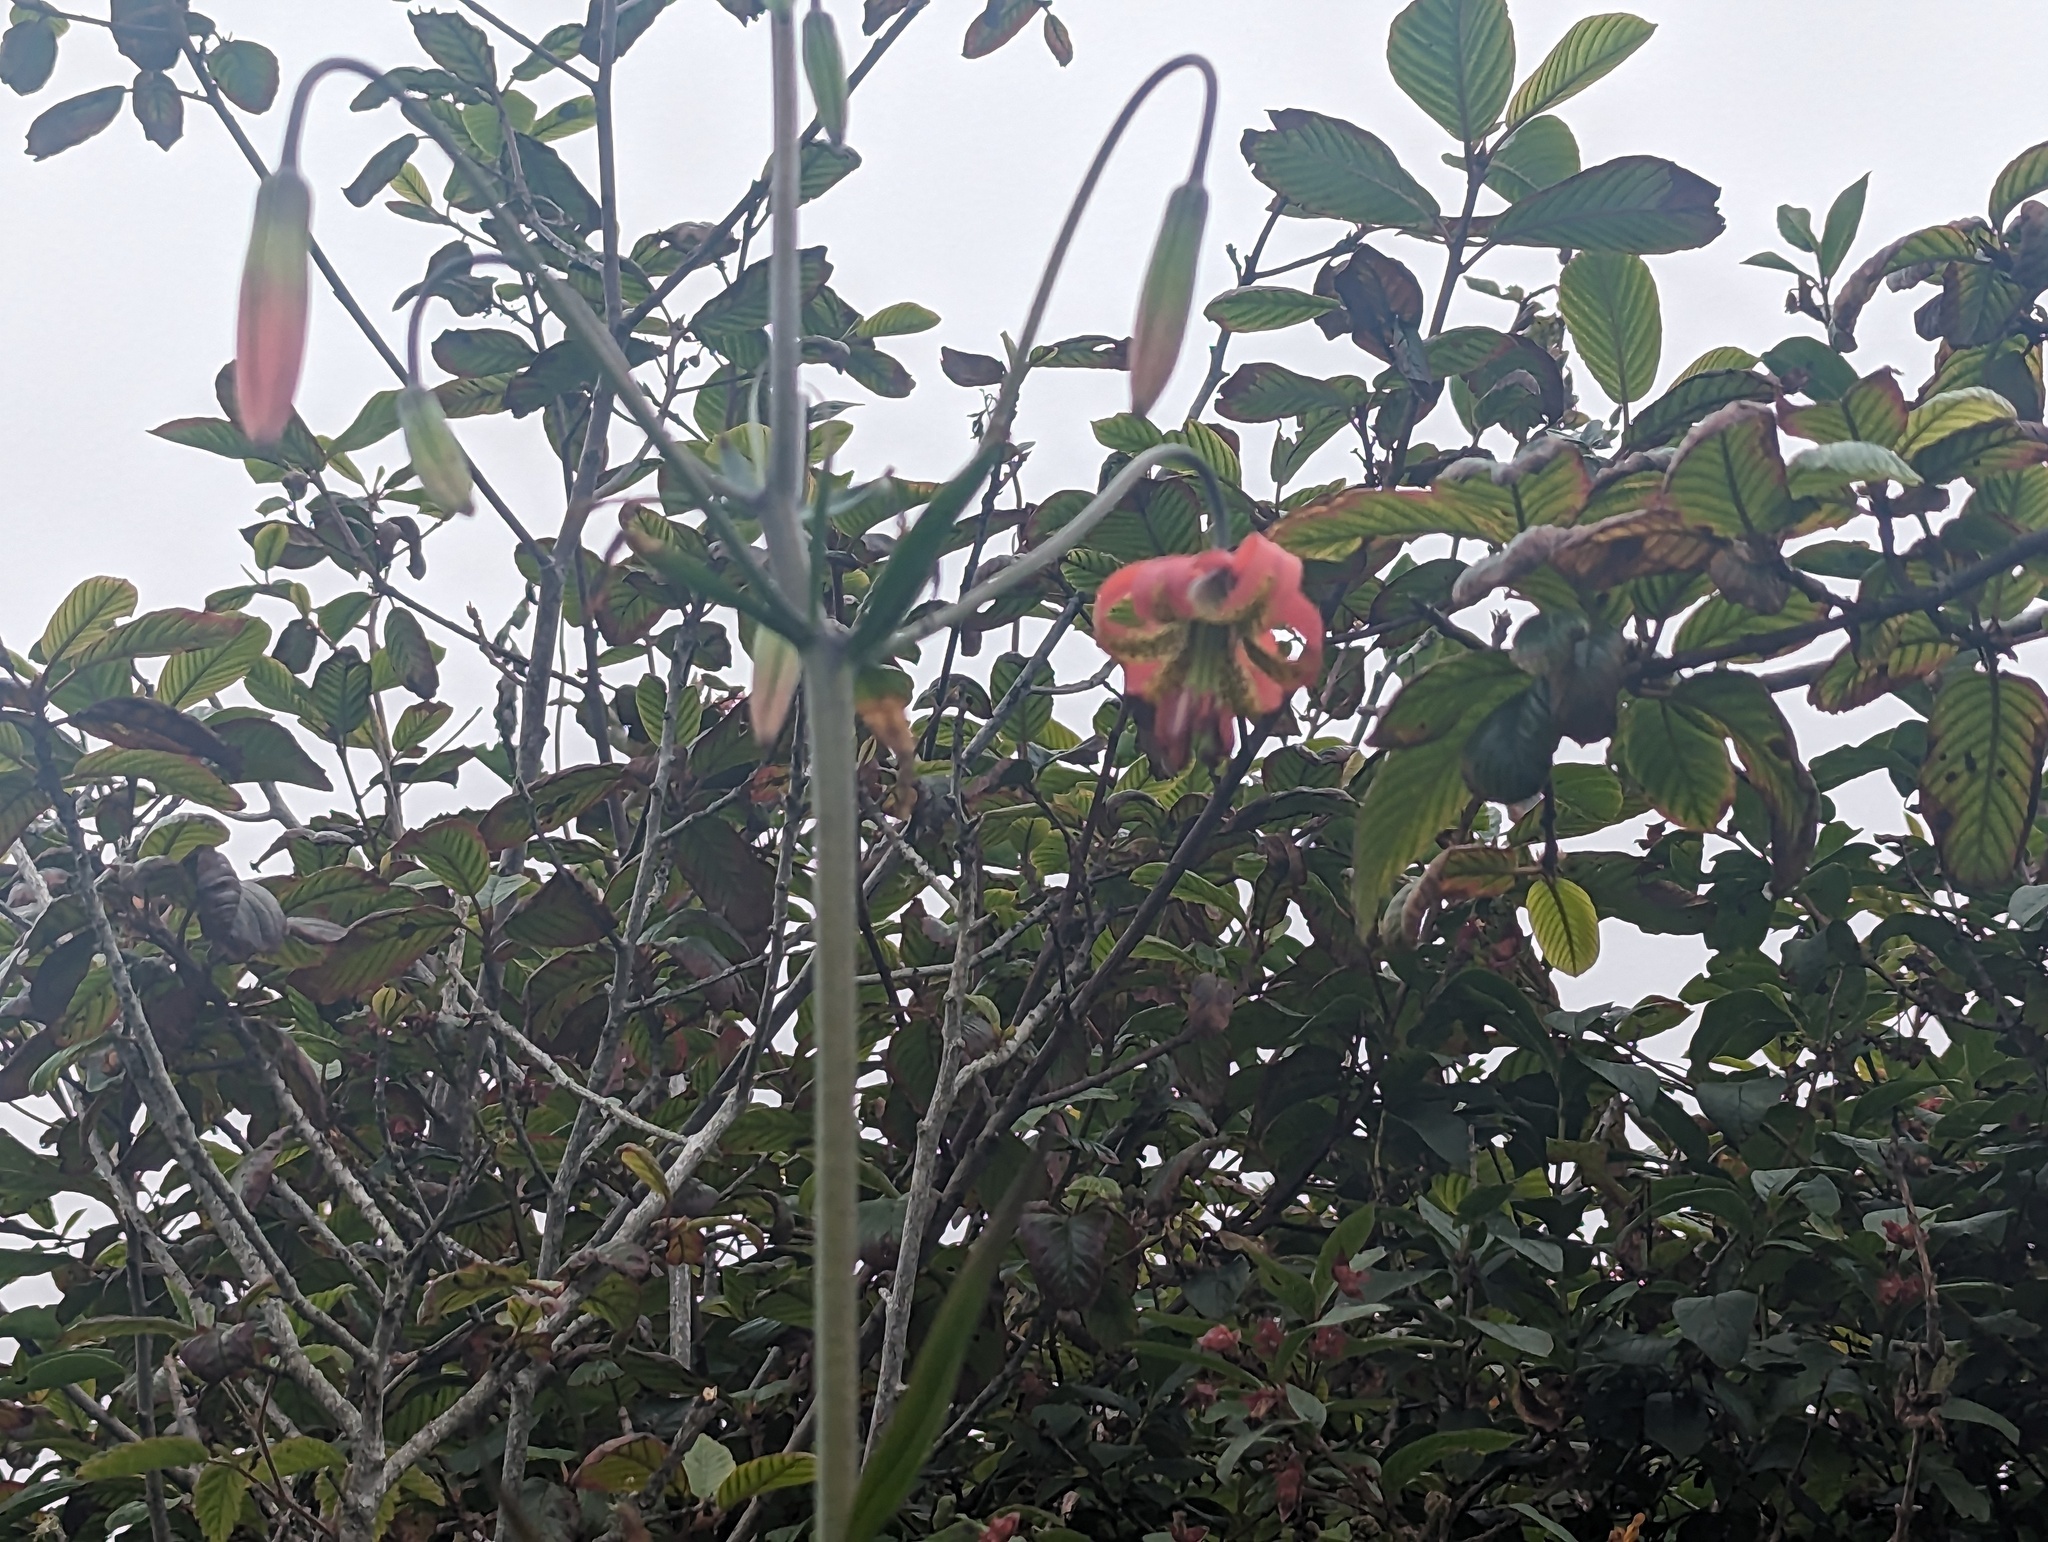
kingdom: Plantae
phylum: Tracheophyta
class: Liliopsida
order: Liliales
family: Liliaceae
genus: Lilium
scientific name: Lilium occidentale
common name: Eureka lily
